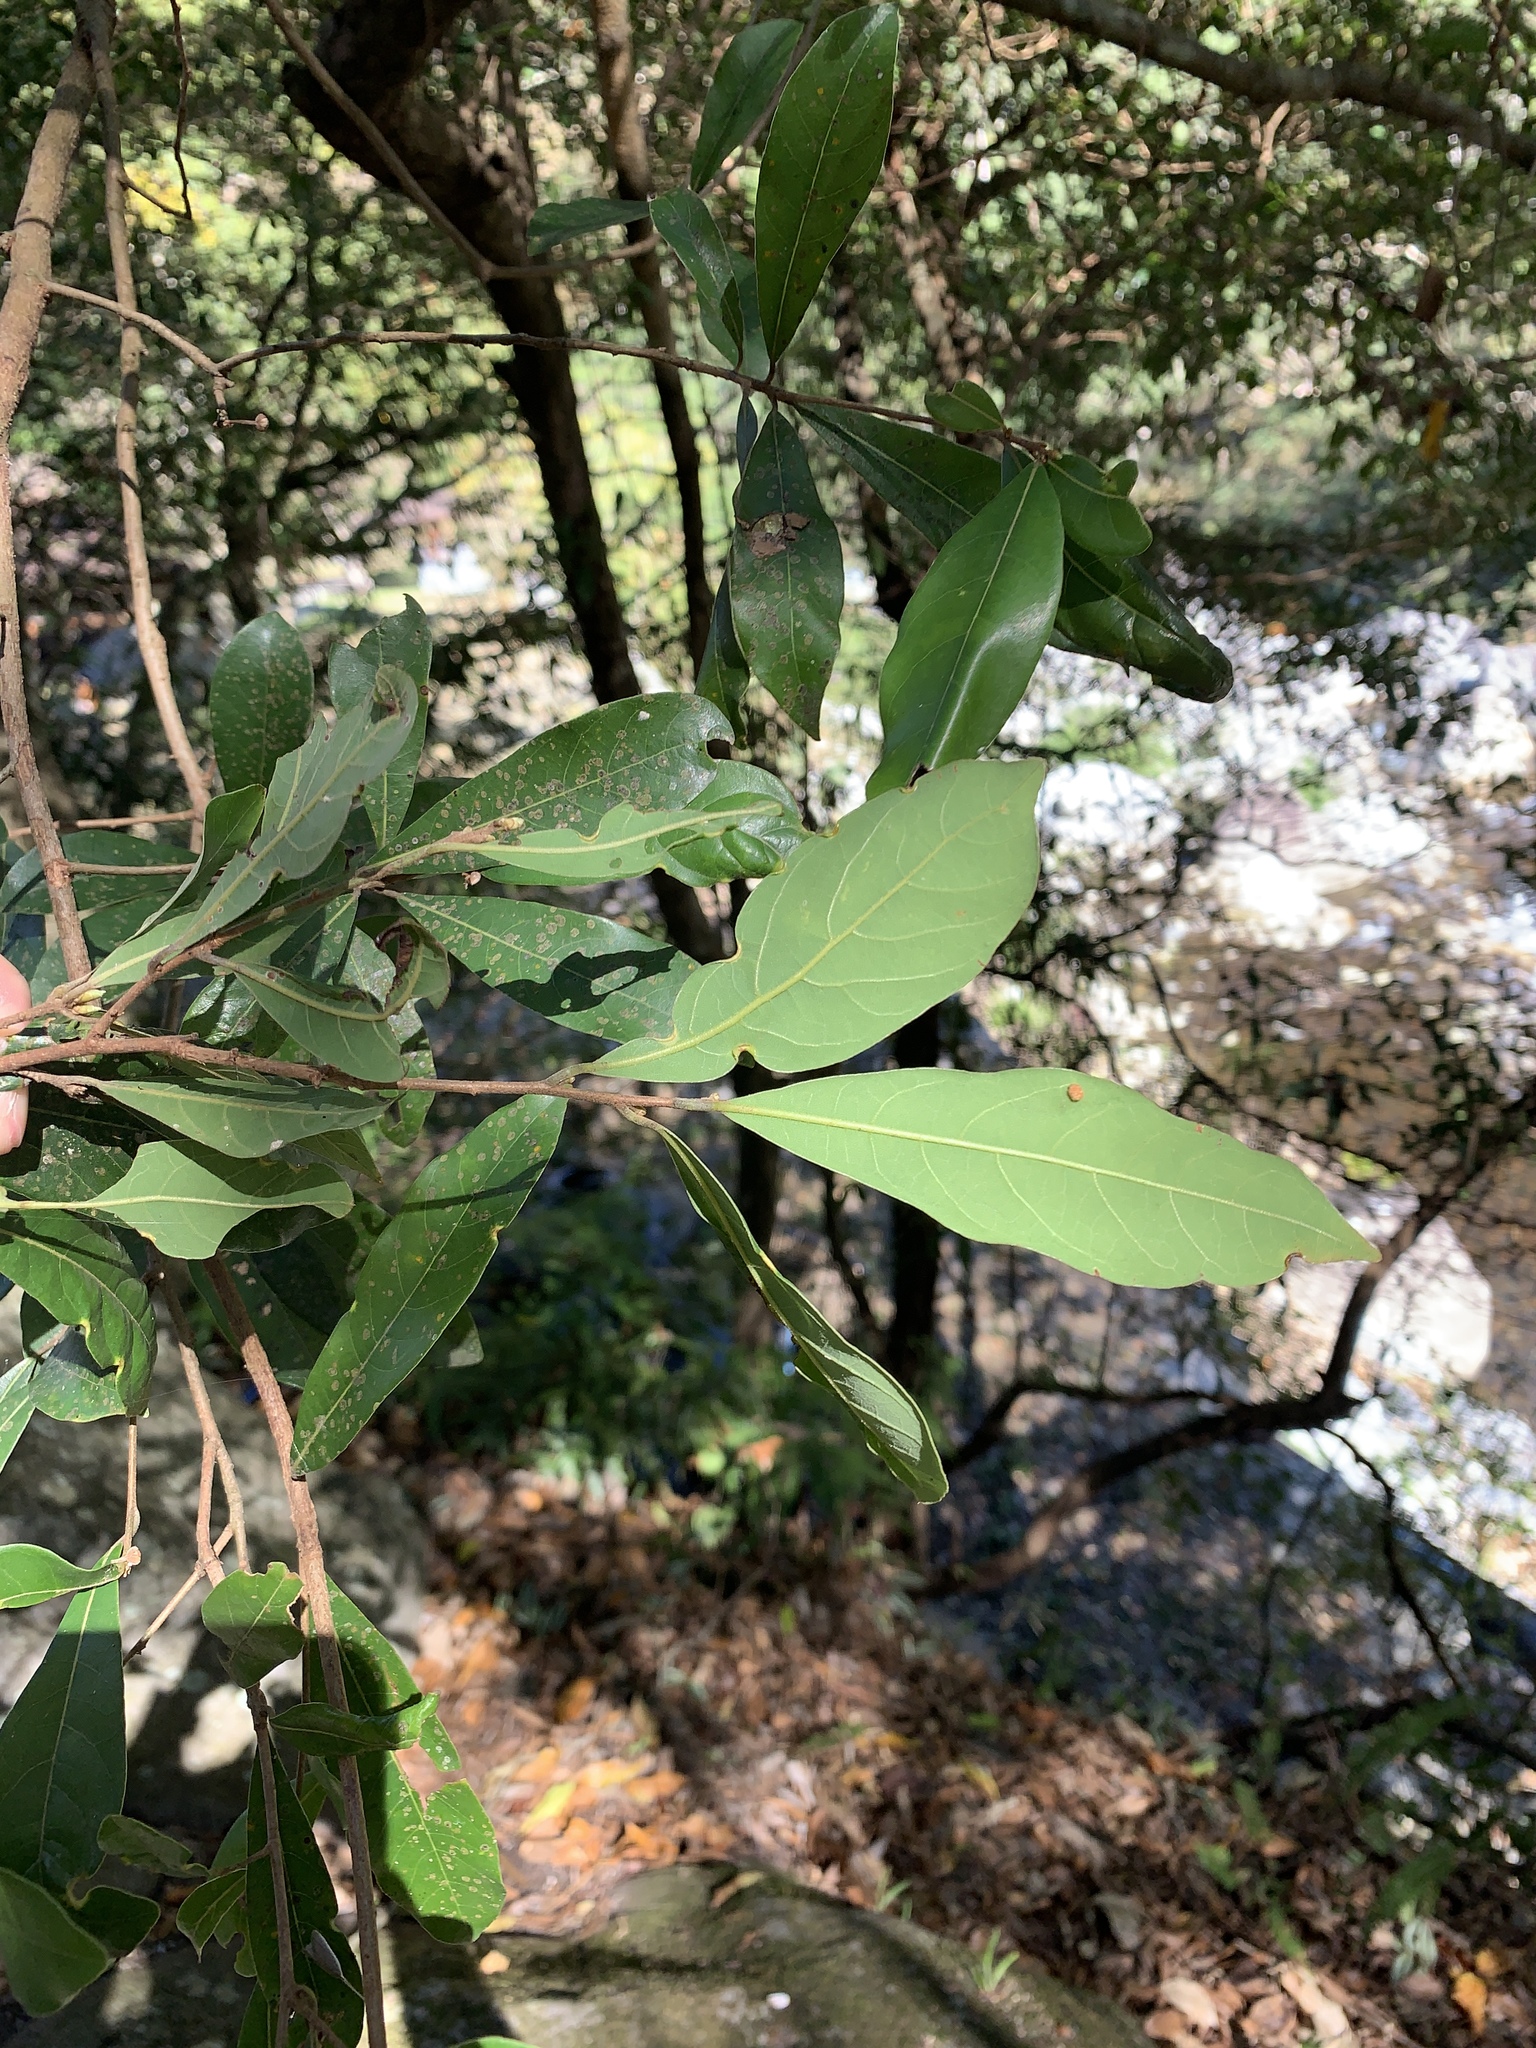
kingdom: Plantae
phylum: Tracheophyta
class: Magnoliopsida
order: Laurales
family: Lauraceae
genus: Litsea
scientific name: Litsea hypophaea
